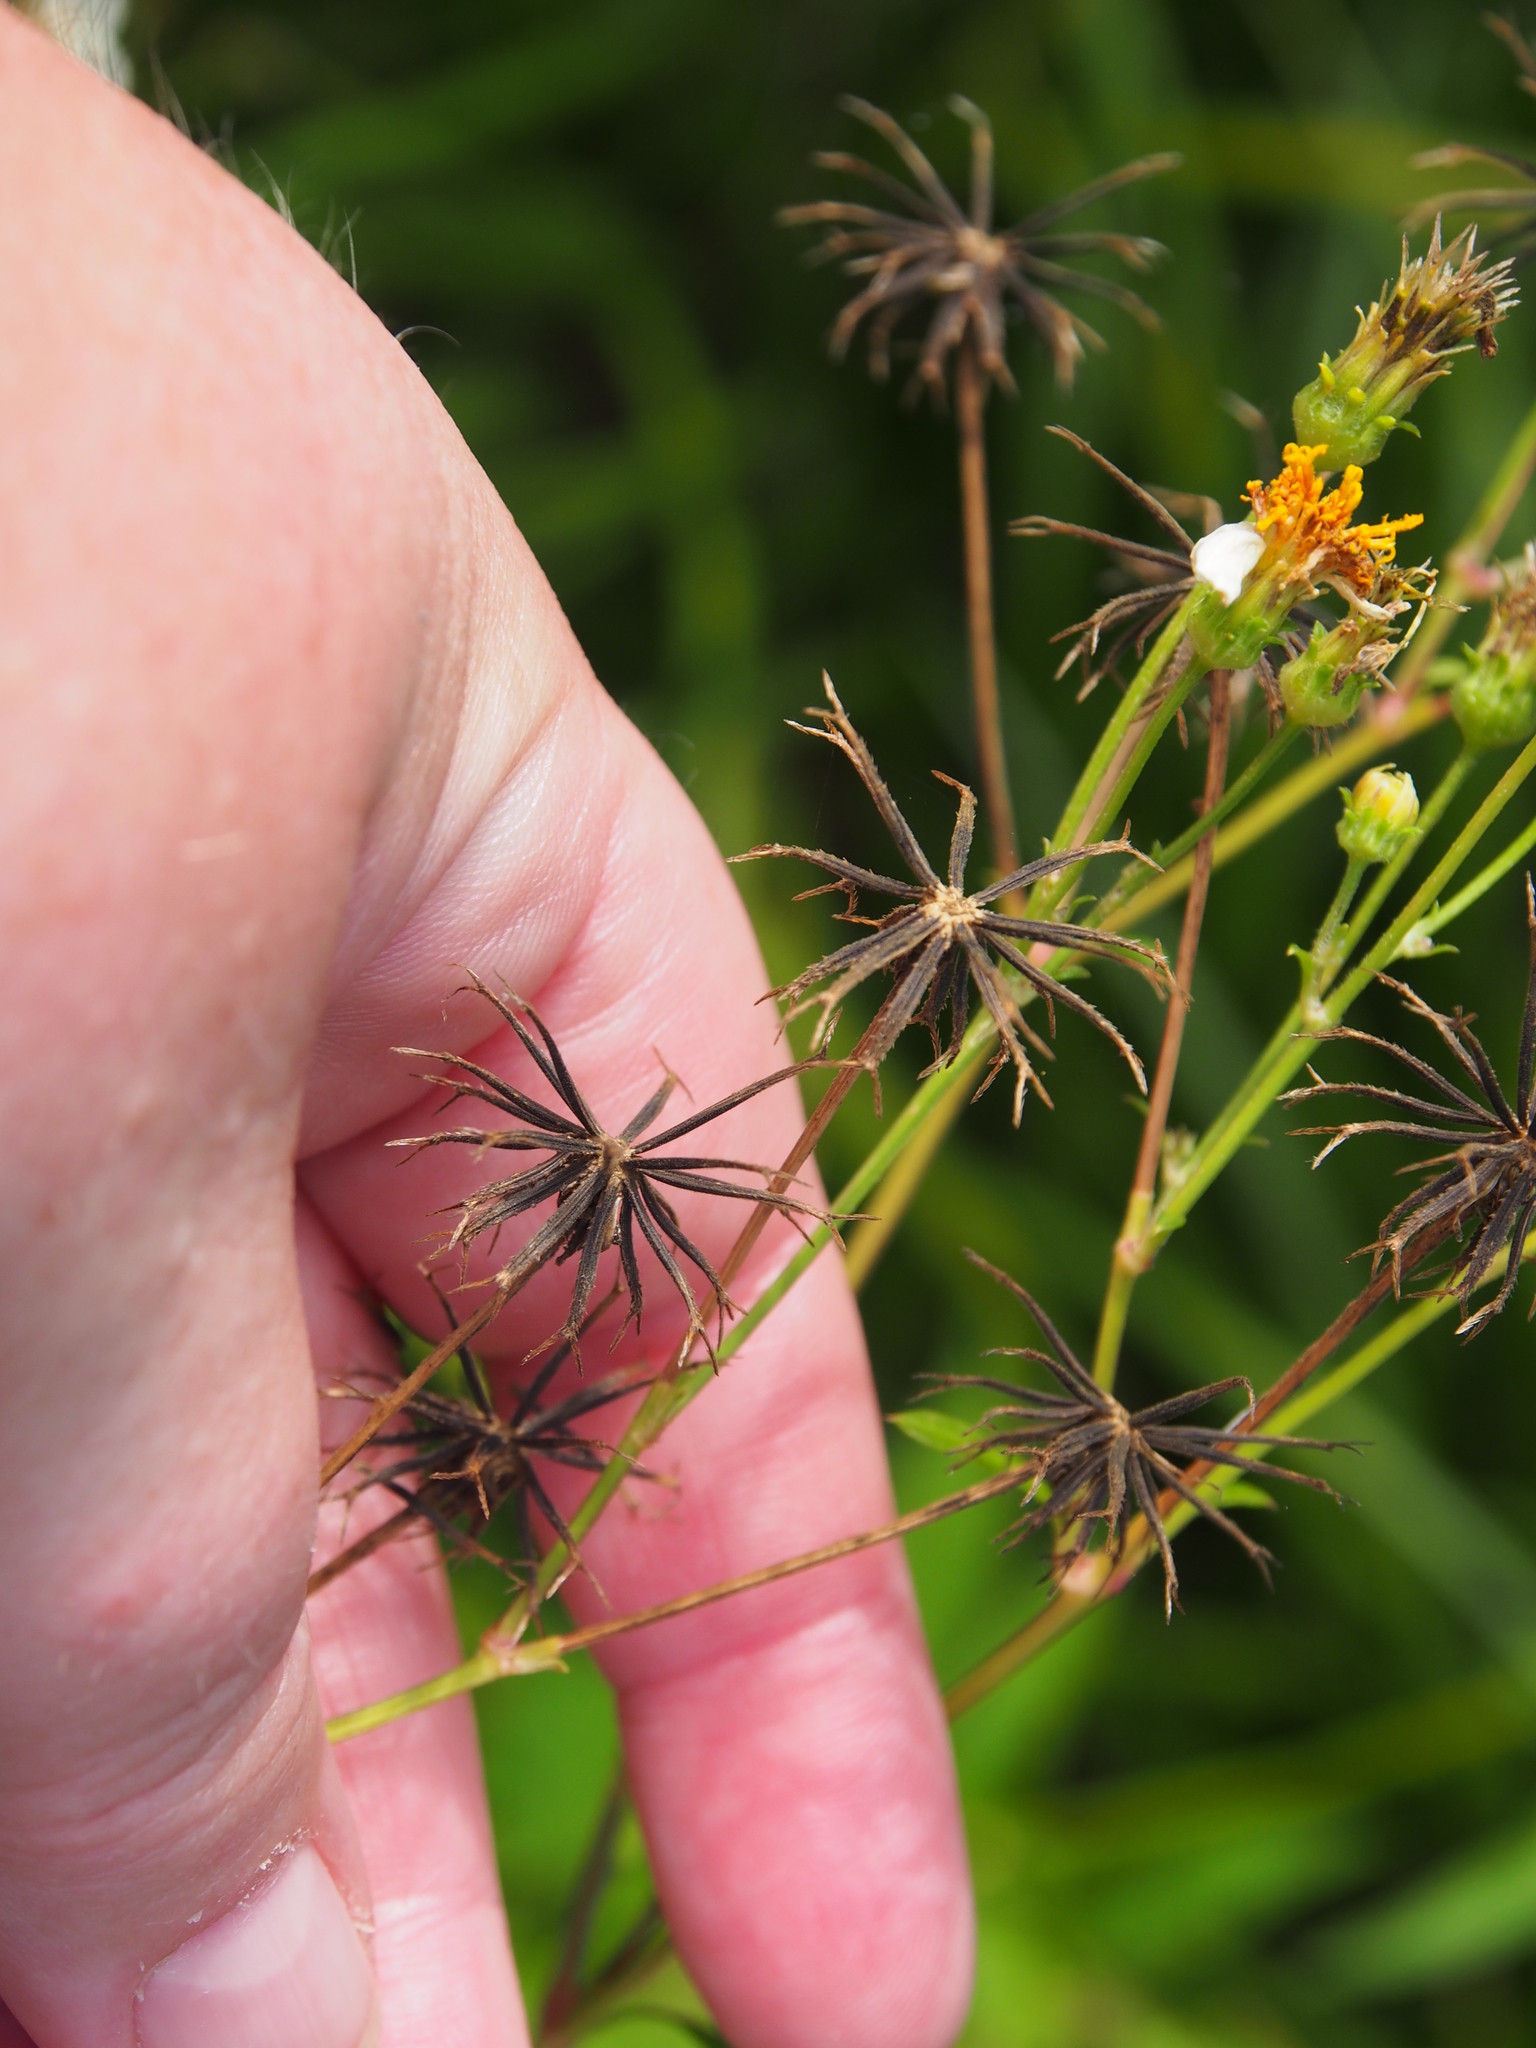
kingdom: Plantae
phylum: Tracheophyta
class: Magnoliopsida
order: Asterales
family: Asteraceae
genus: Bidens
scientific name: Bidens alba
